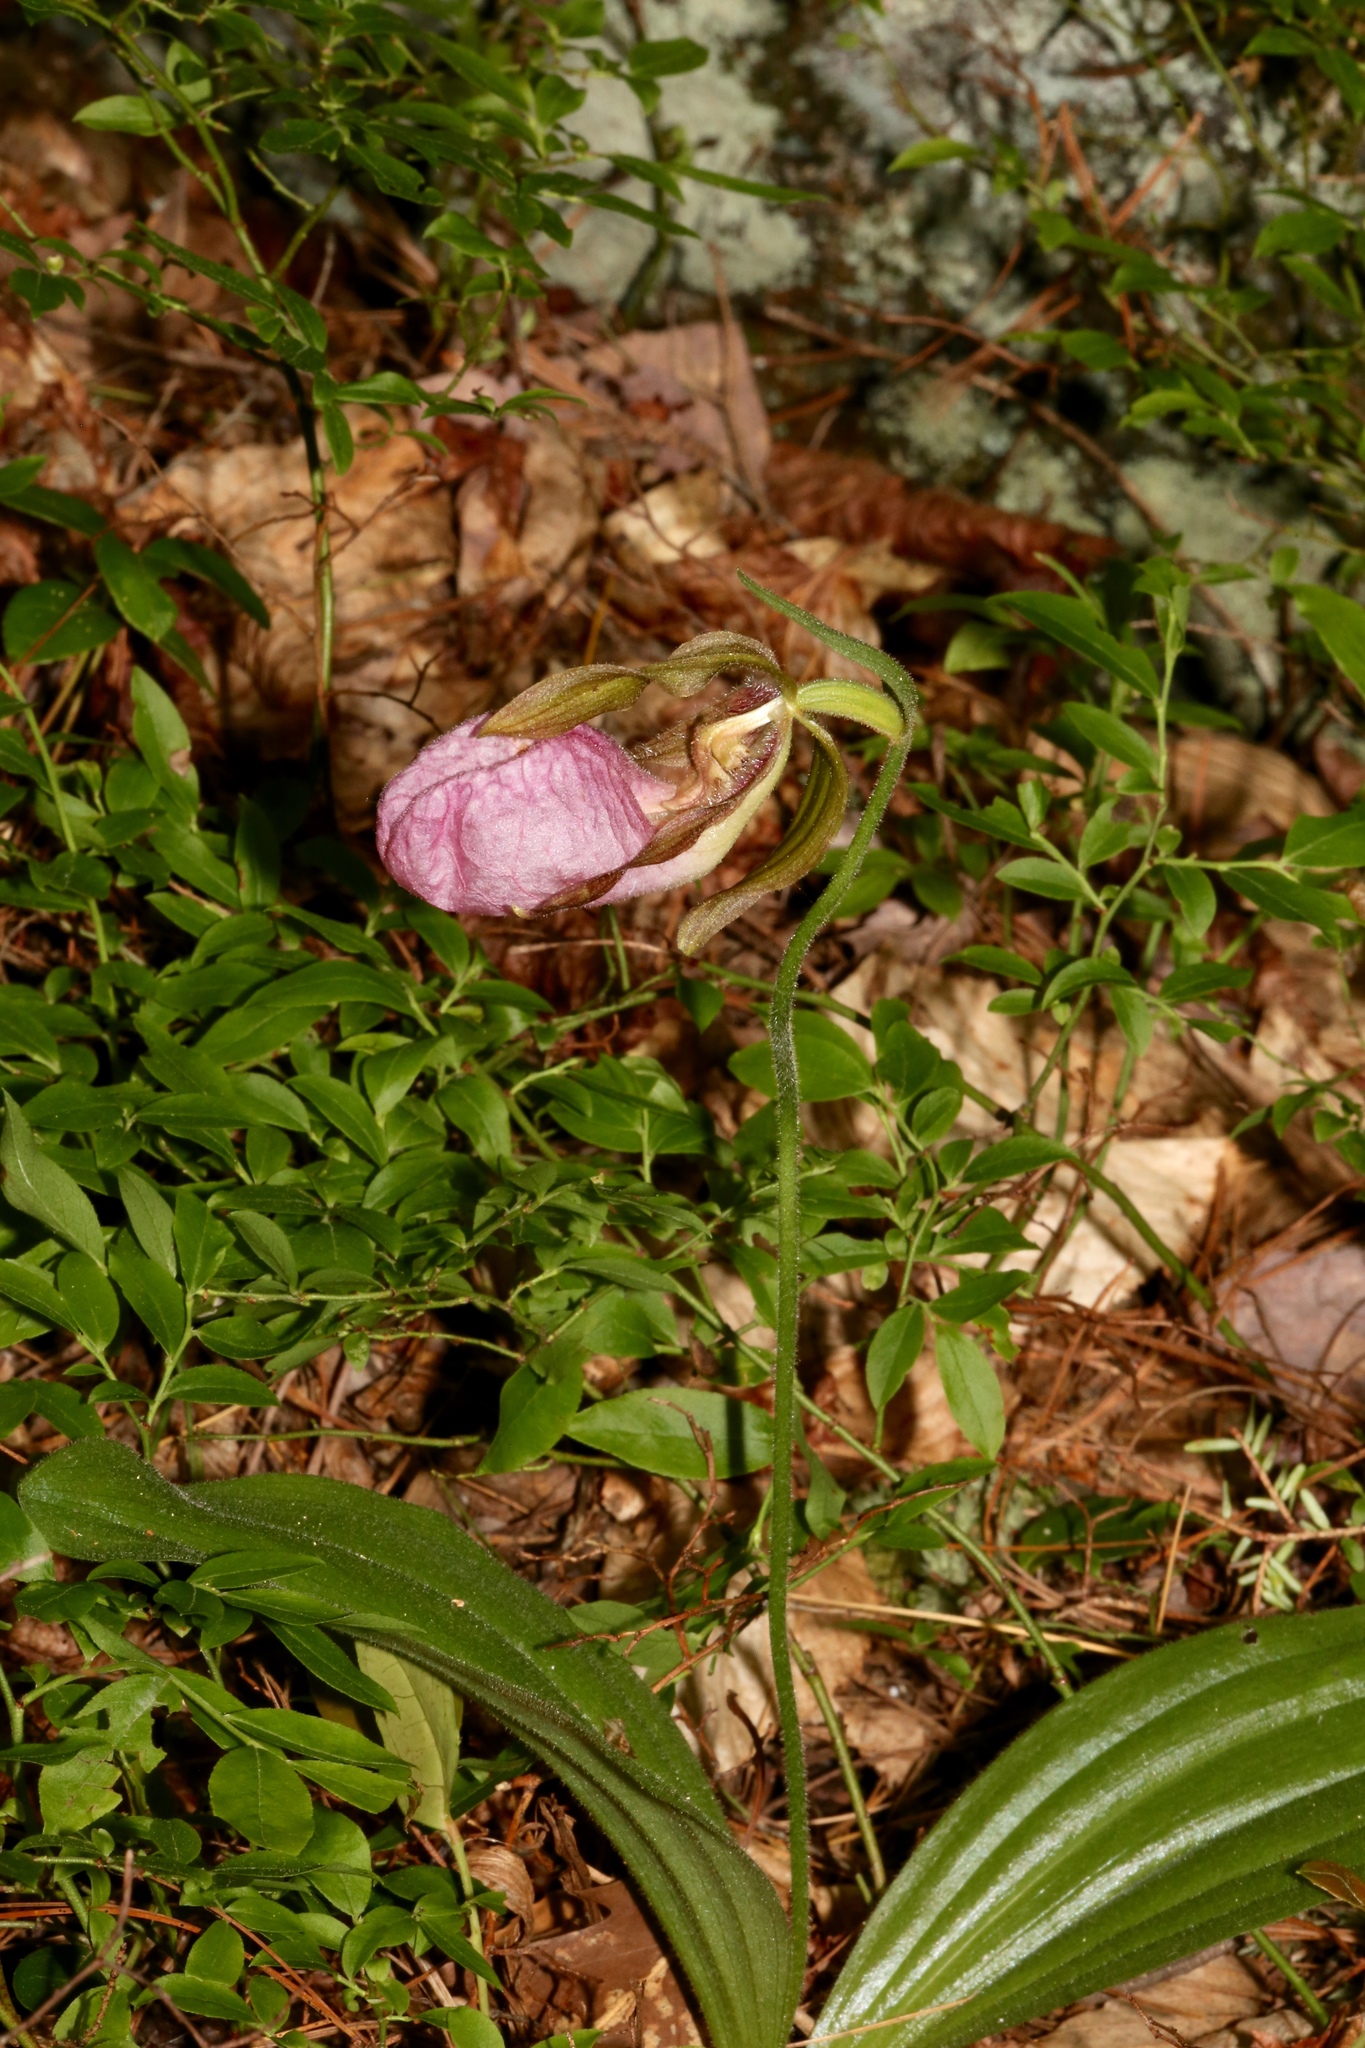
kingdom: Plantae
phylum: Tracheophyta
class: Liliopsida
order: Asparagales
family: Orchidaceae
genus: Cypripedium
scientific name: Cypripedium acaule
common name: Pink lady's-slipper
